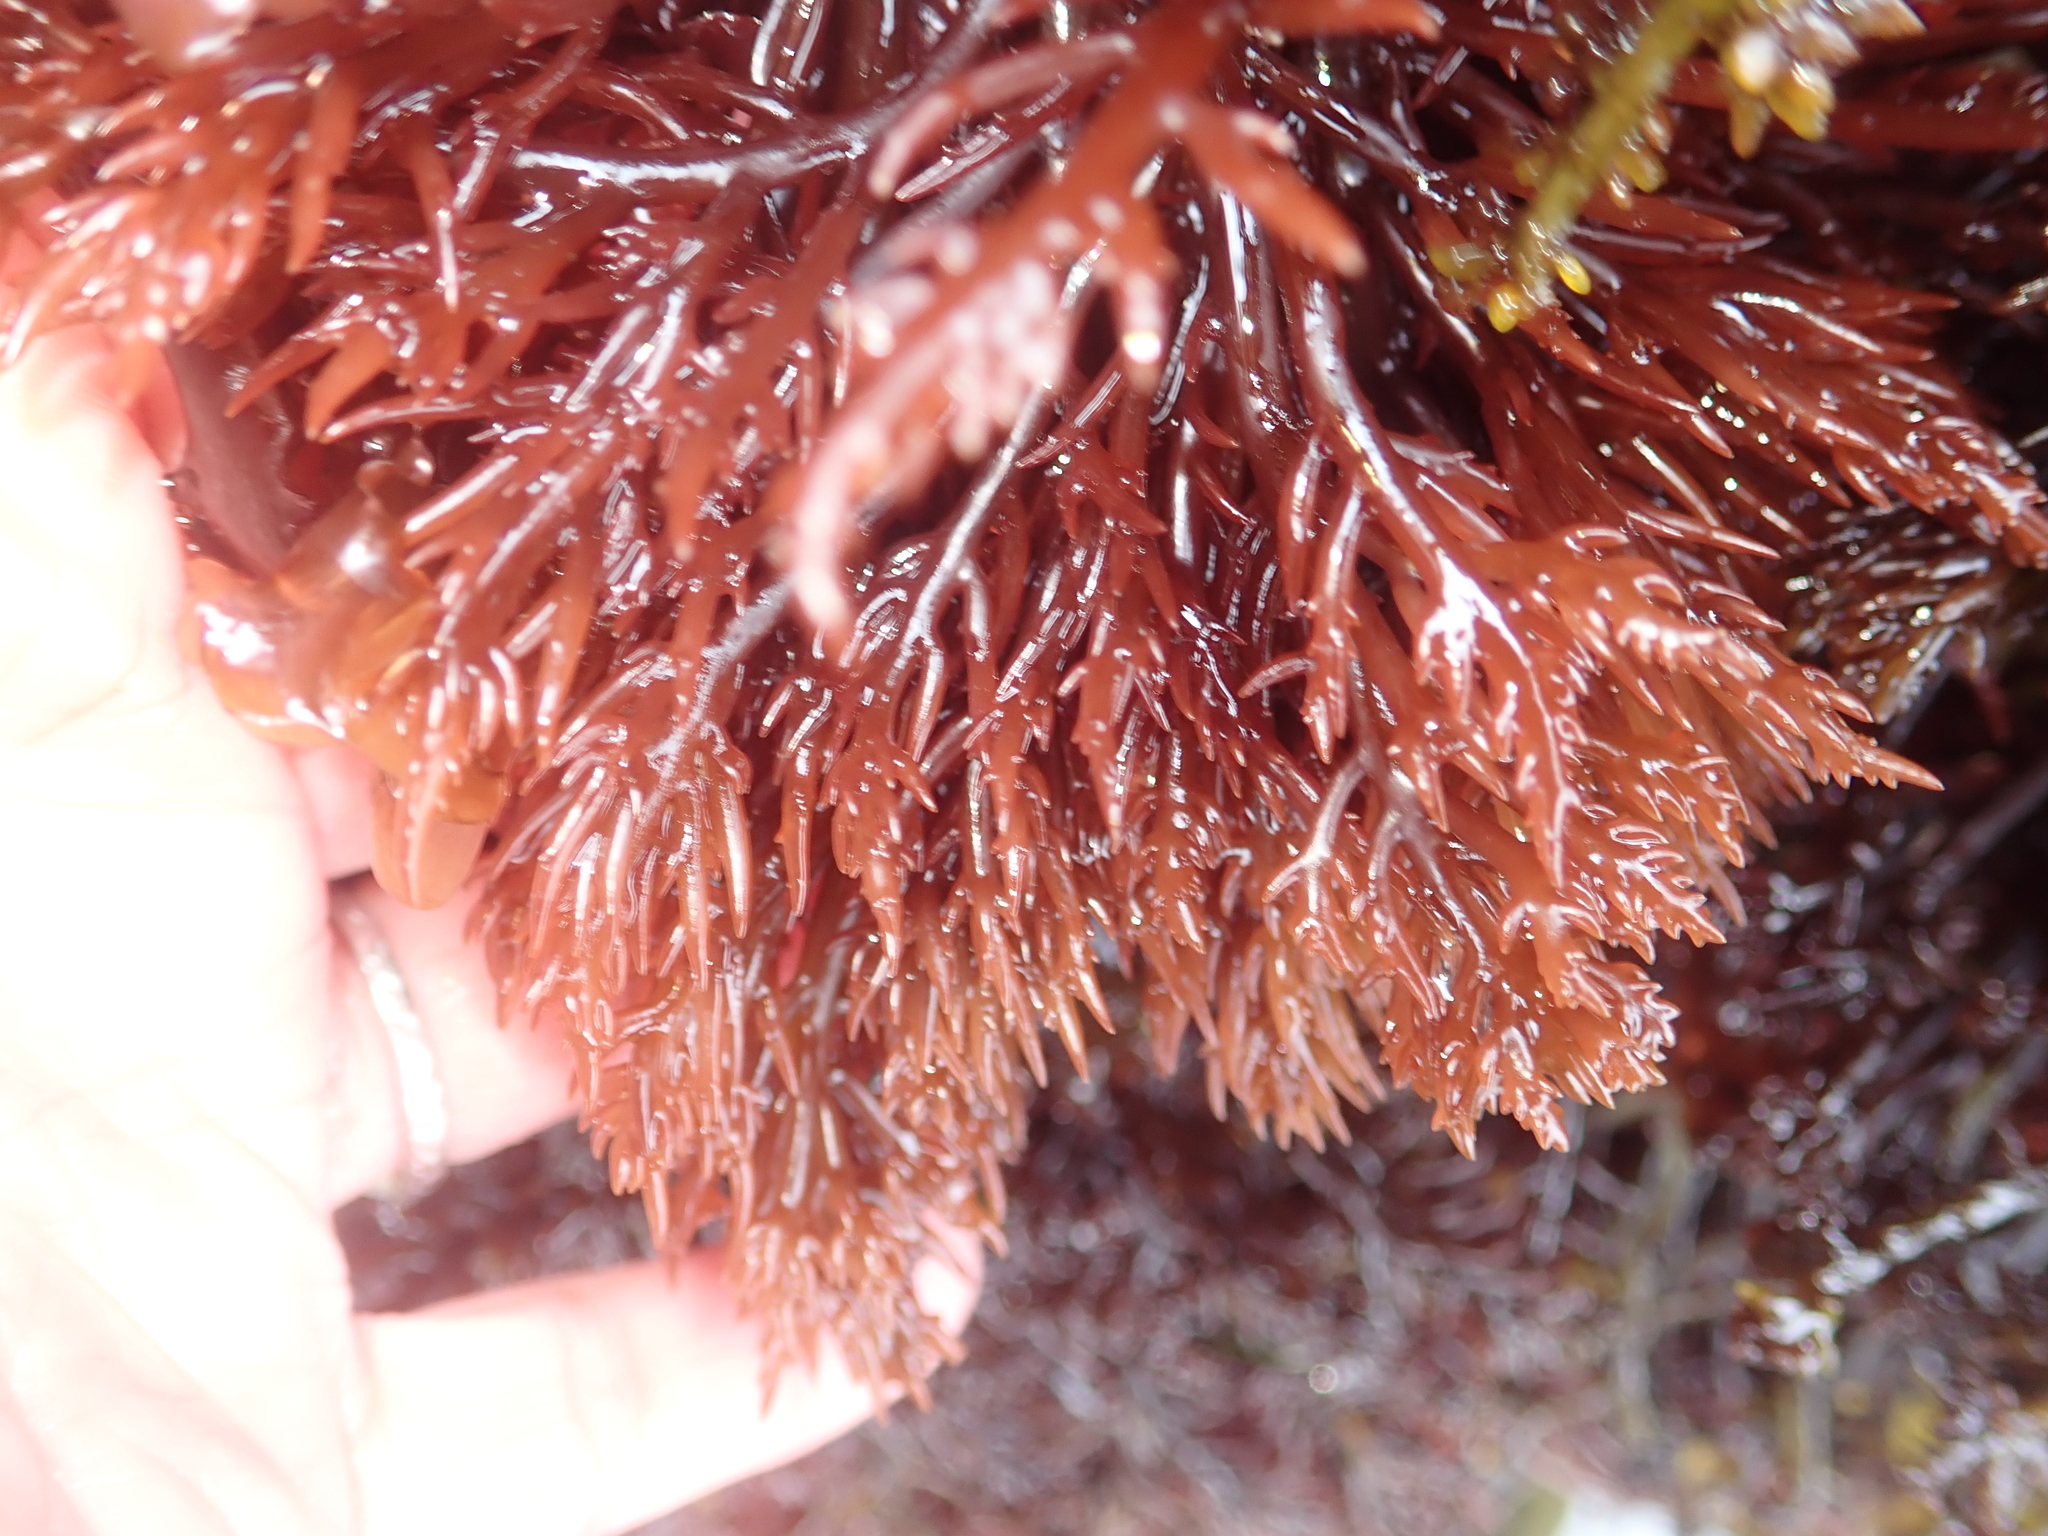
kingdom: Plantae
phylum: Rhodophyta
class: Florideophyceae
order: Gigartinales
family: Solieriaceae
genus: Sarcodiotheca
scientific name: Sarcodiotheca gaudichaudii
